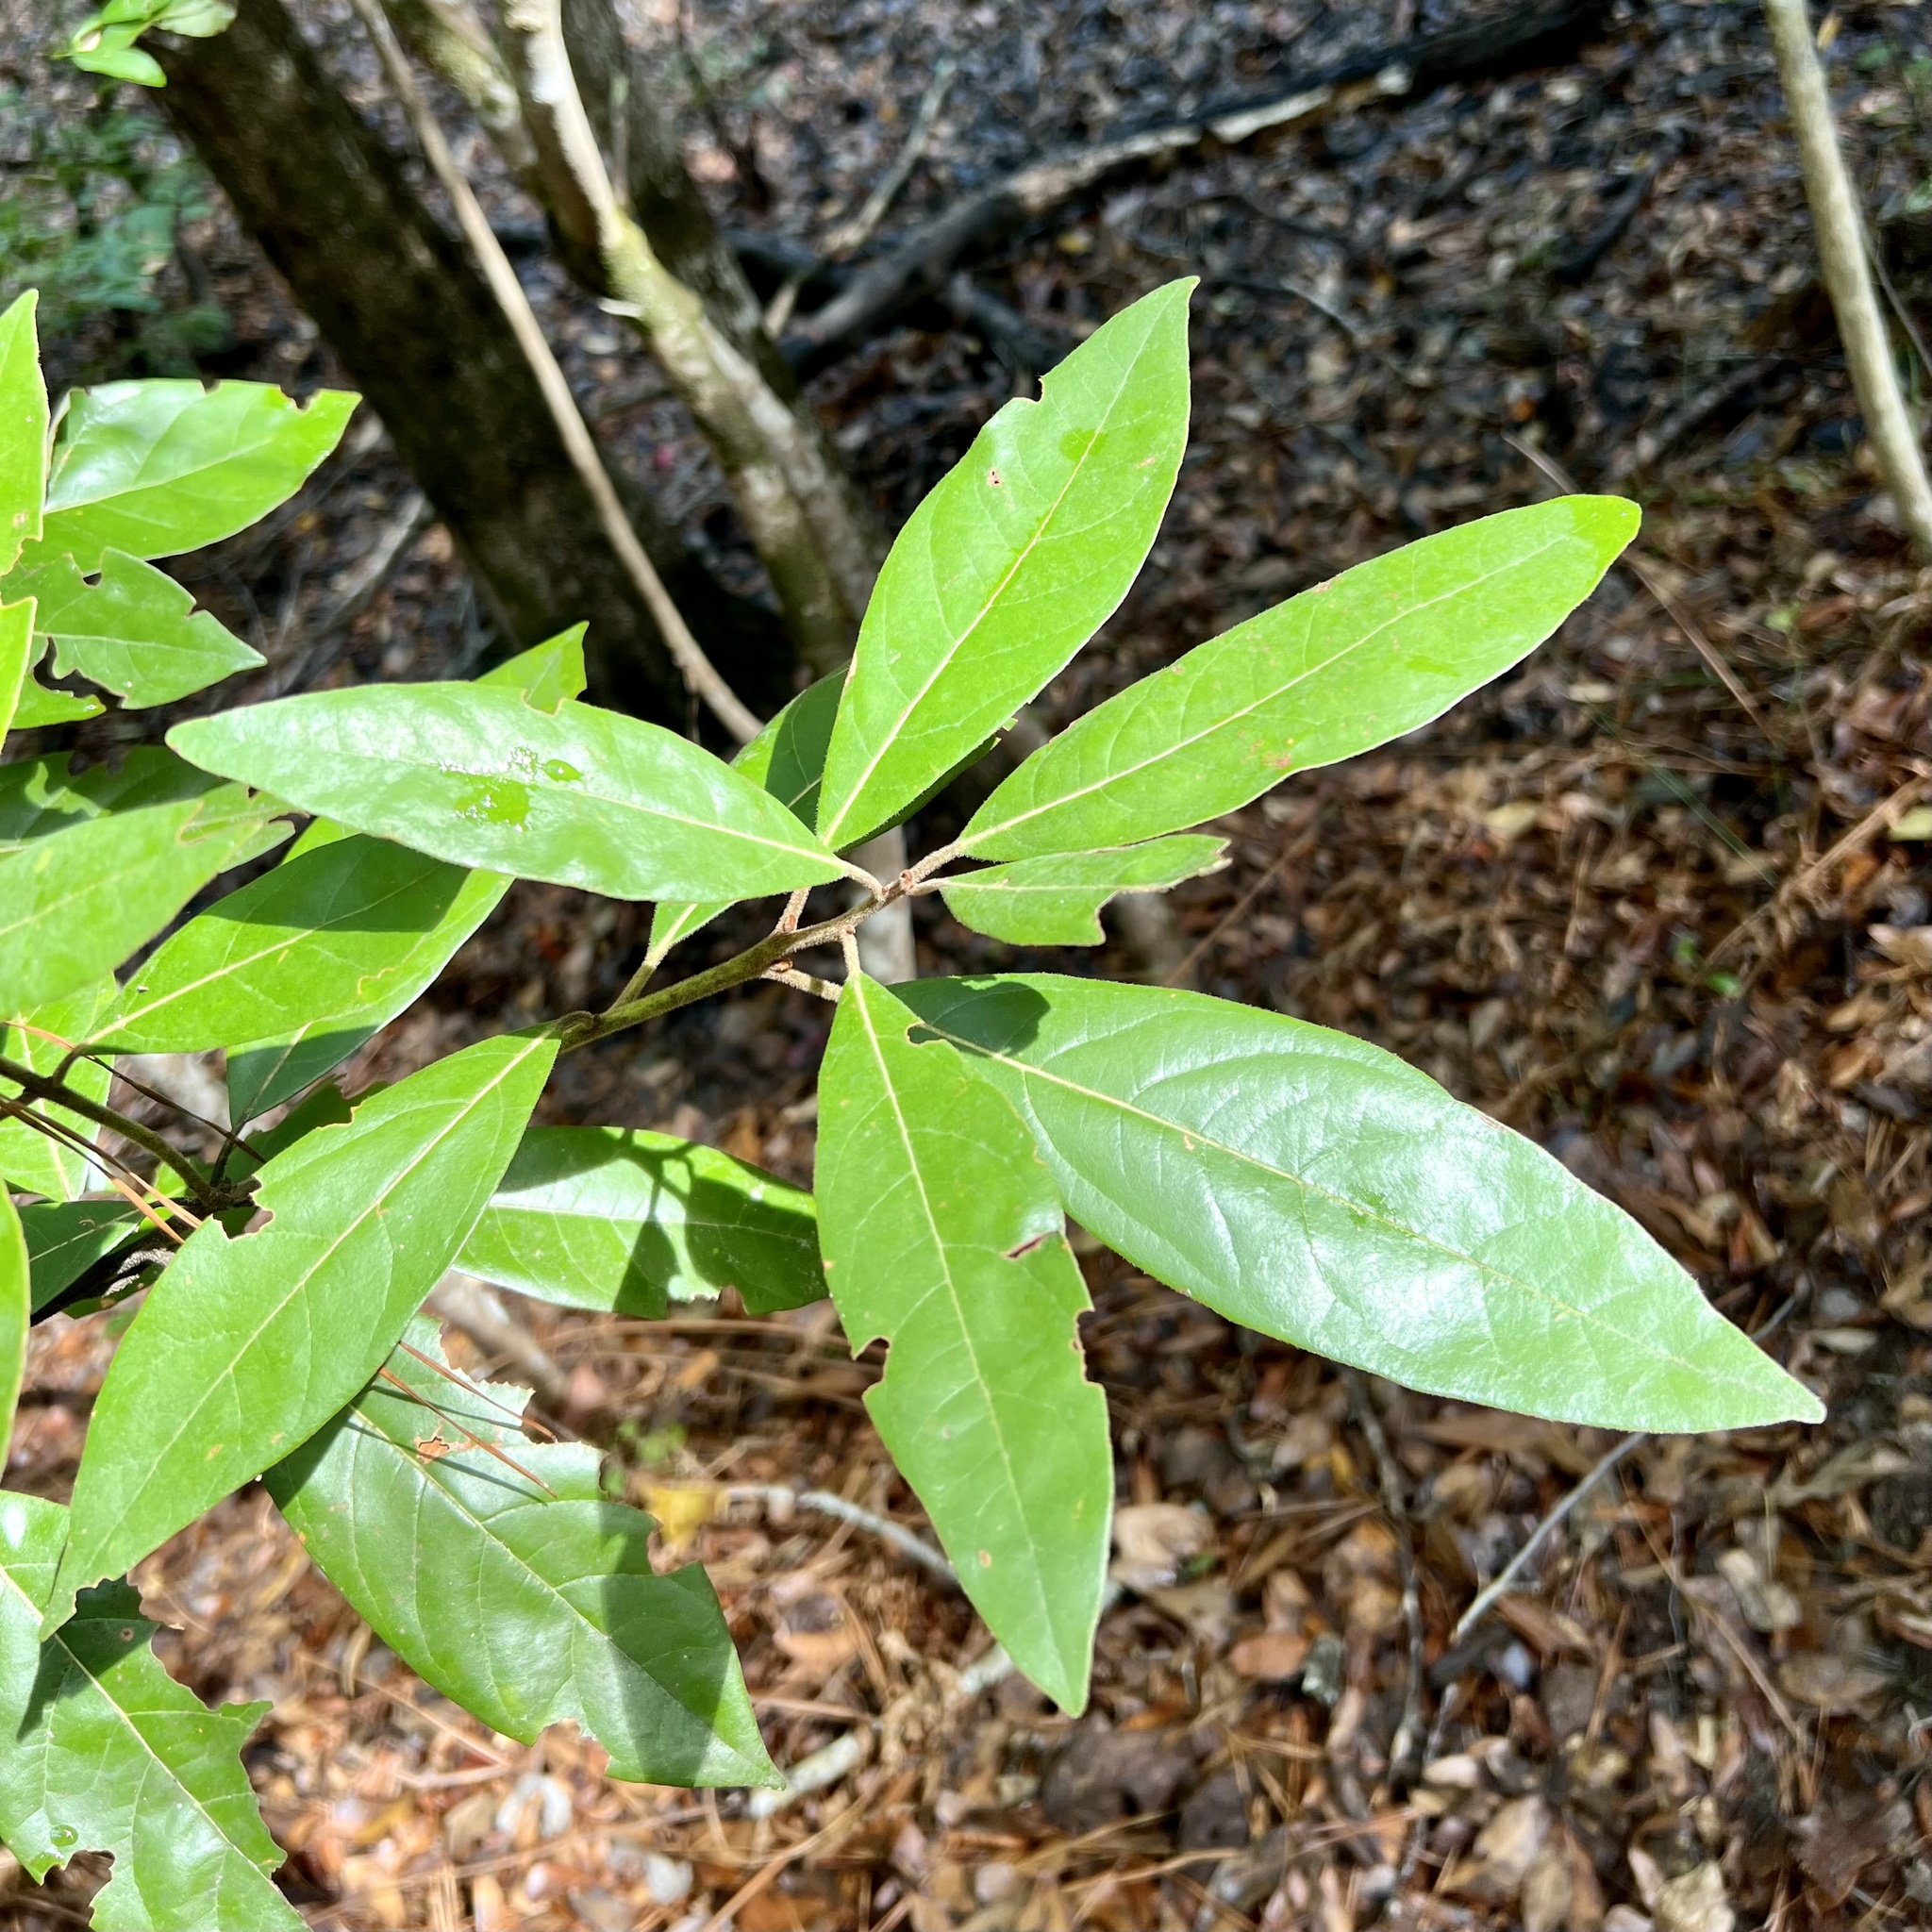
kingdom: Plantae
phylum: Tracheophyta
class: Magnoliopsida
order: Laurales
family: Lauraceae
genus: Persea
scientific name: Persea palustris
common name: Swampbay
